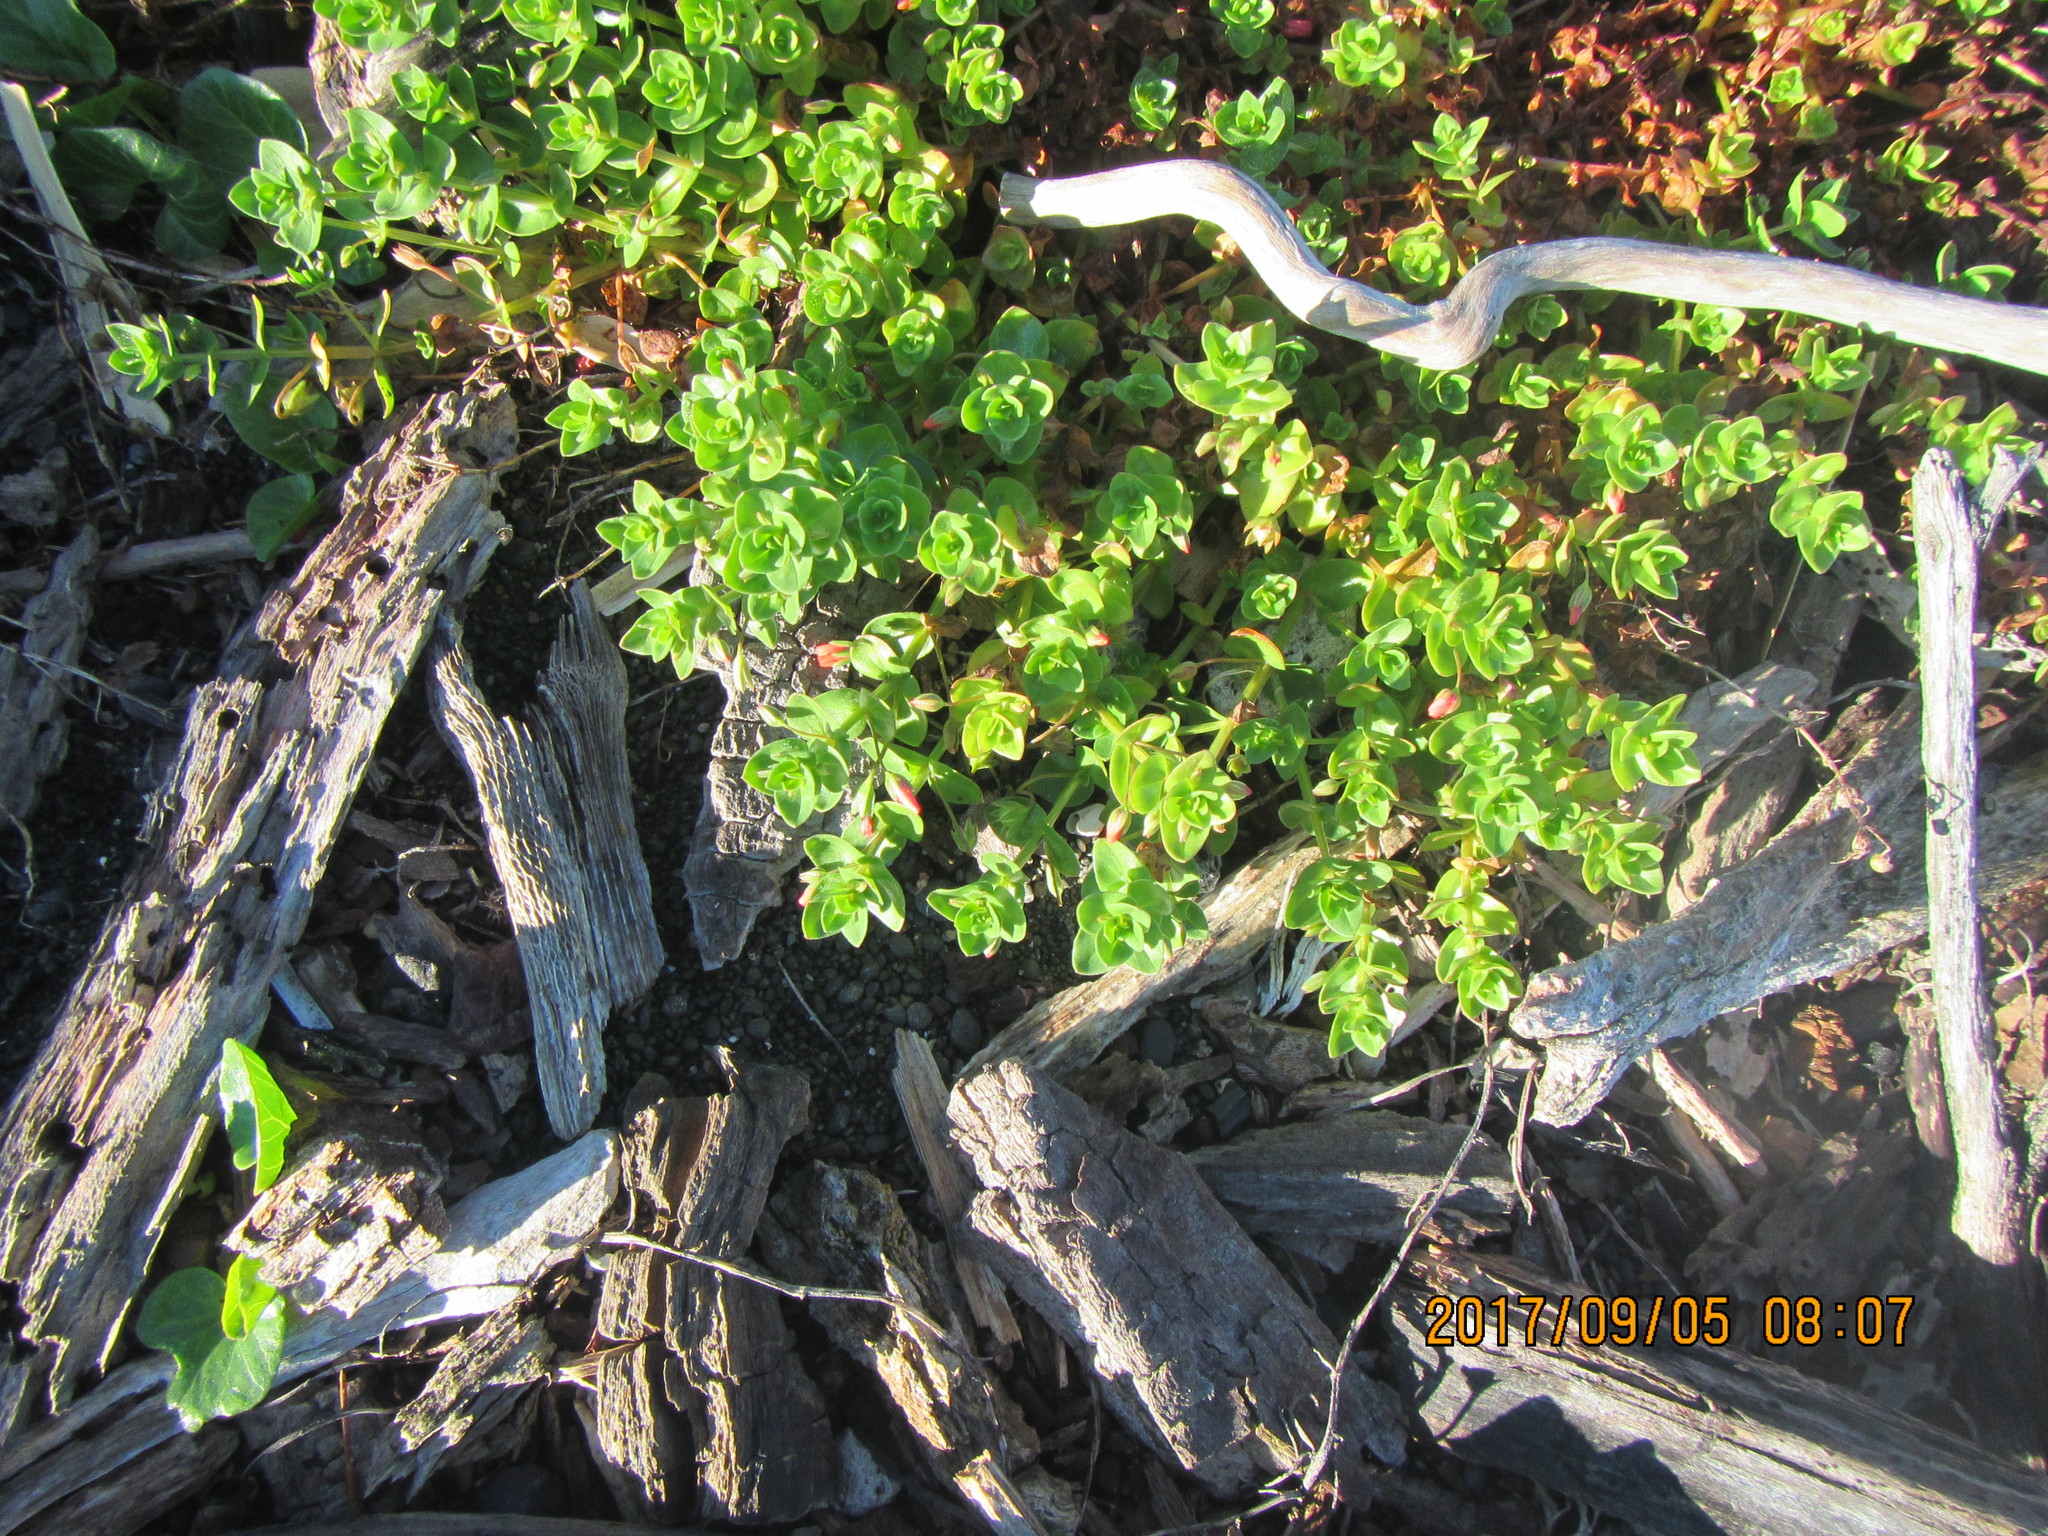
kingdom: Plantae
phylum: Tracheophyta
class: Magnoliopsida
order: Ericales
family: Primulaceae
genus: Lysimachia
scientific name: Lysimachia arvensis
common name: Scarlet pimpernel
